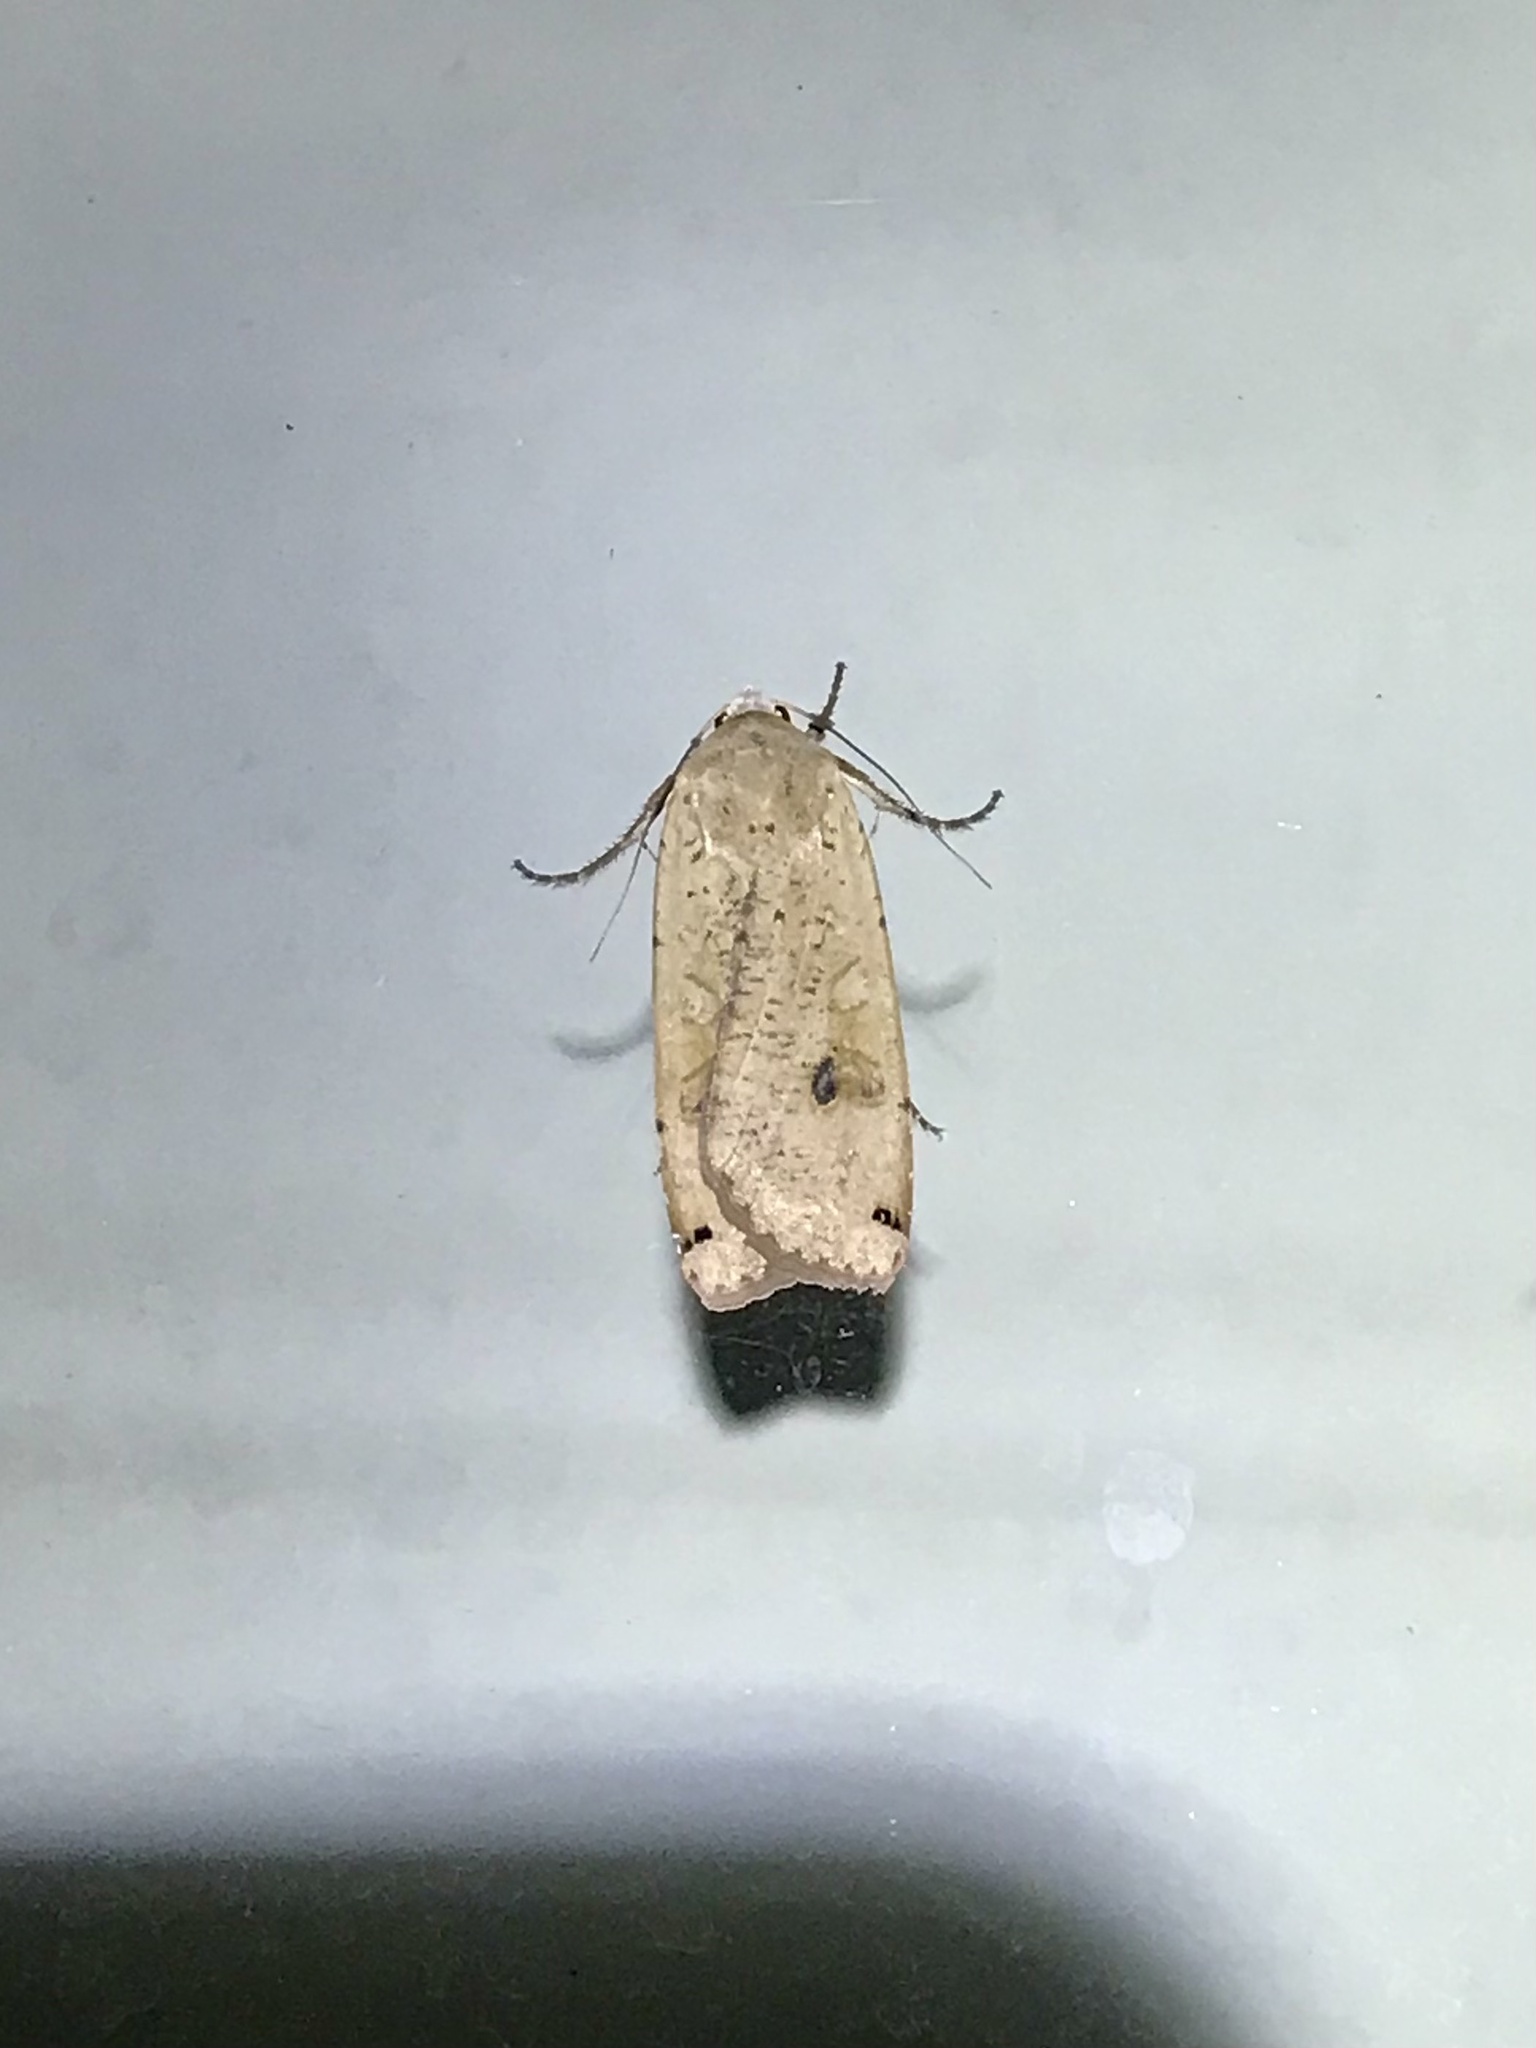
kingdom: Animalia
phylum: Arthropoda
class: Insecta
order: Lepidoptera
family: Noctuidae
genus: Noctua
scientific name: Noctua pronuba
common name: Large yellow underwing
